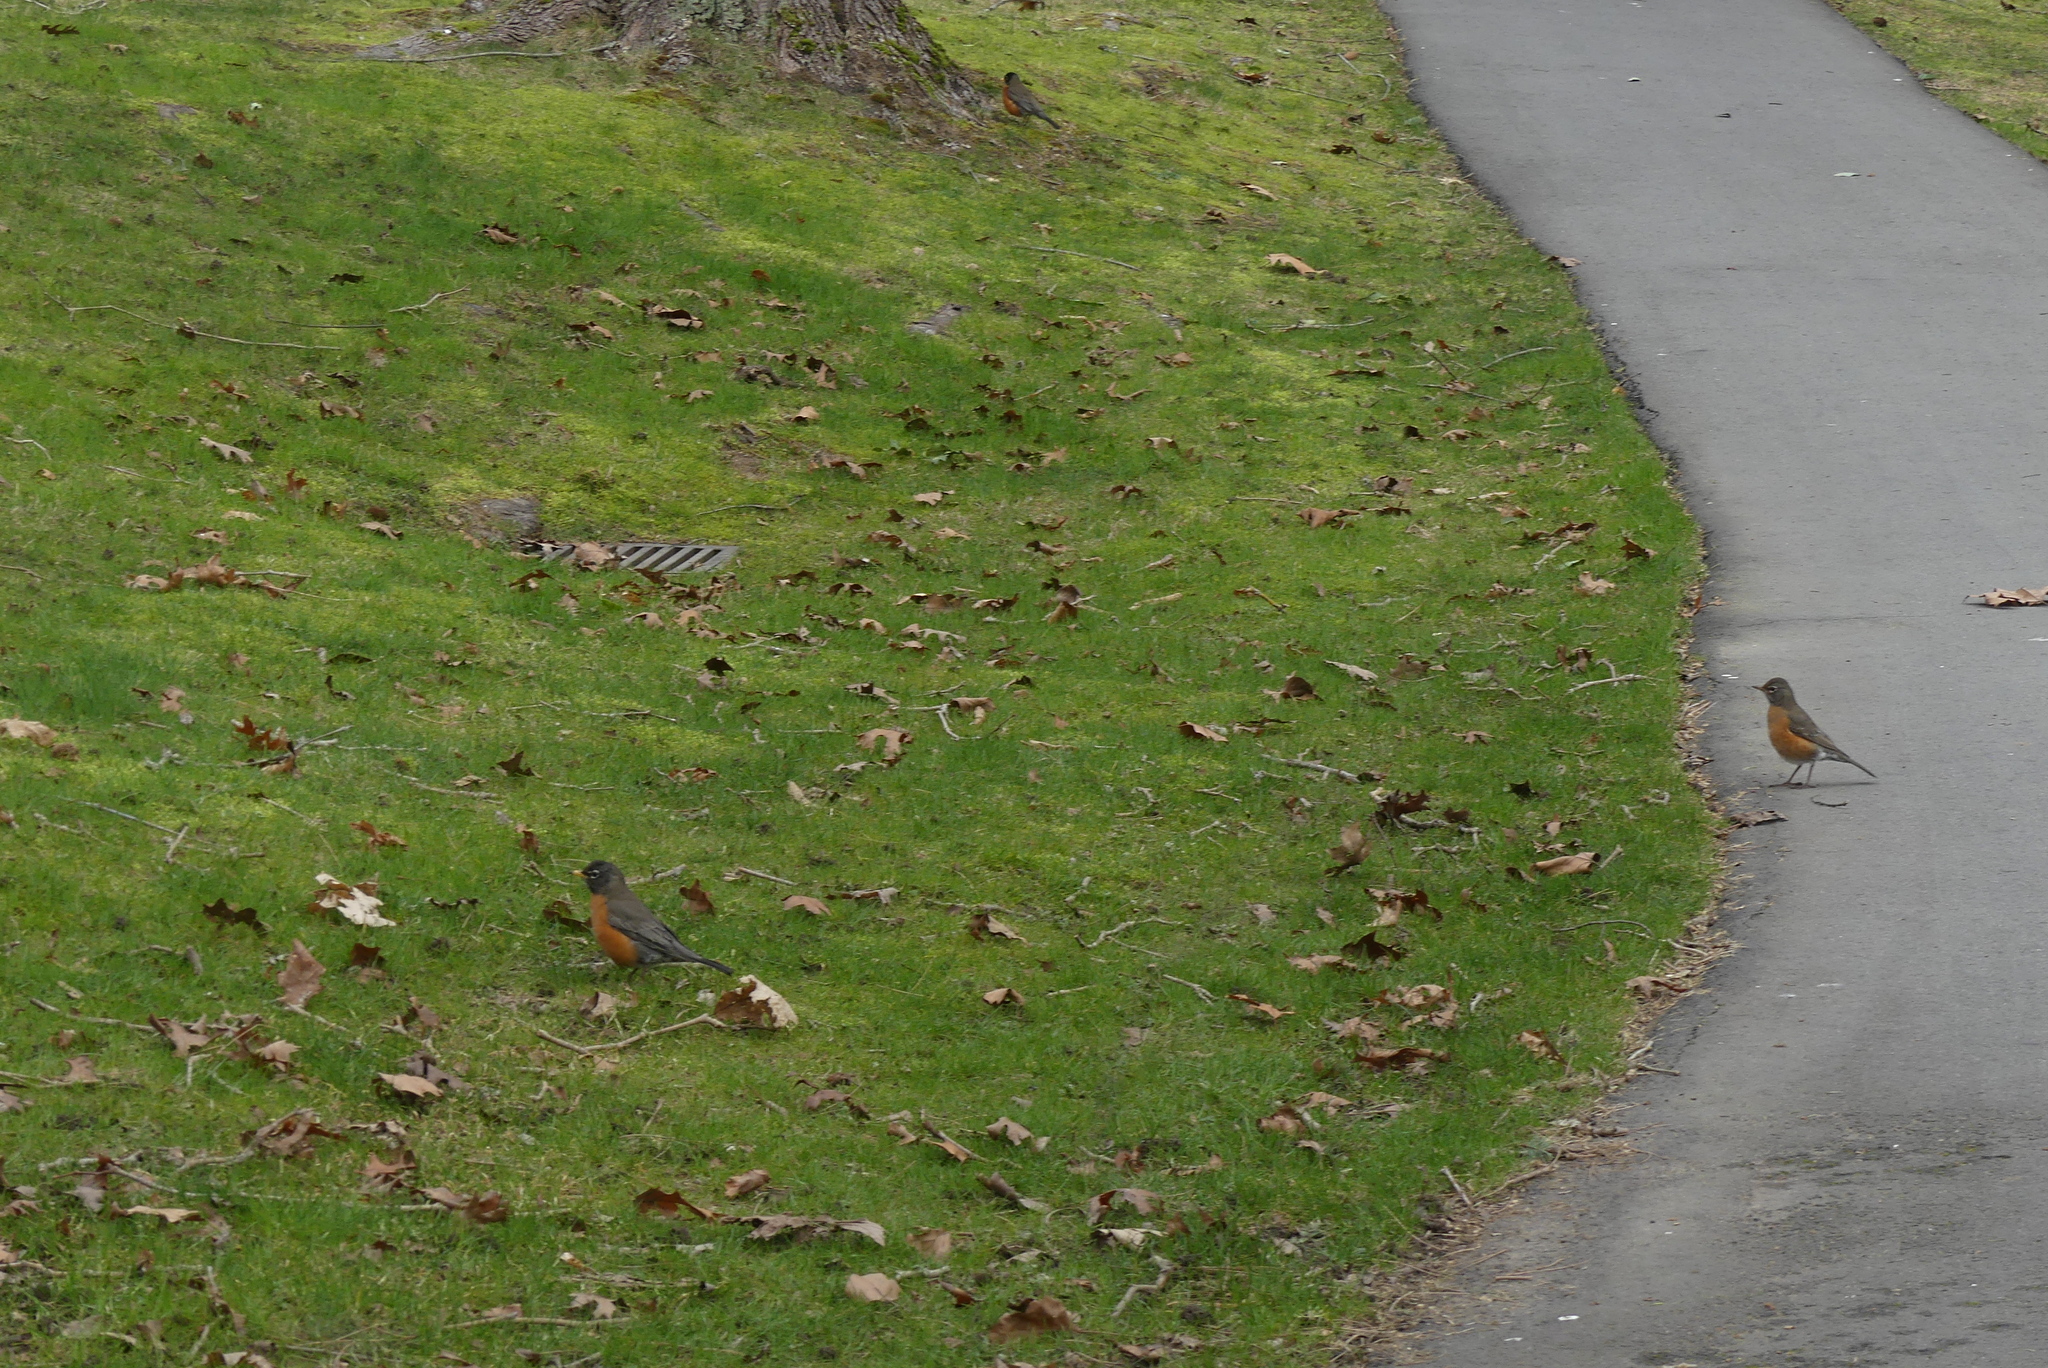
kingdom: Animalia
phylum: Chordata
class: Aves
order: Passeriformes
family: Turdidae
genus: Turdus
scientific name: Turdus migratorius
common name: American robin
